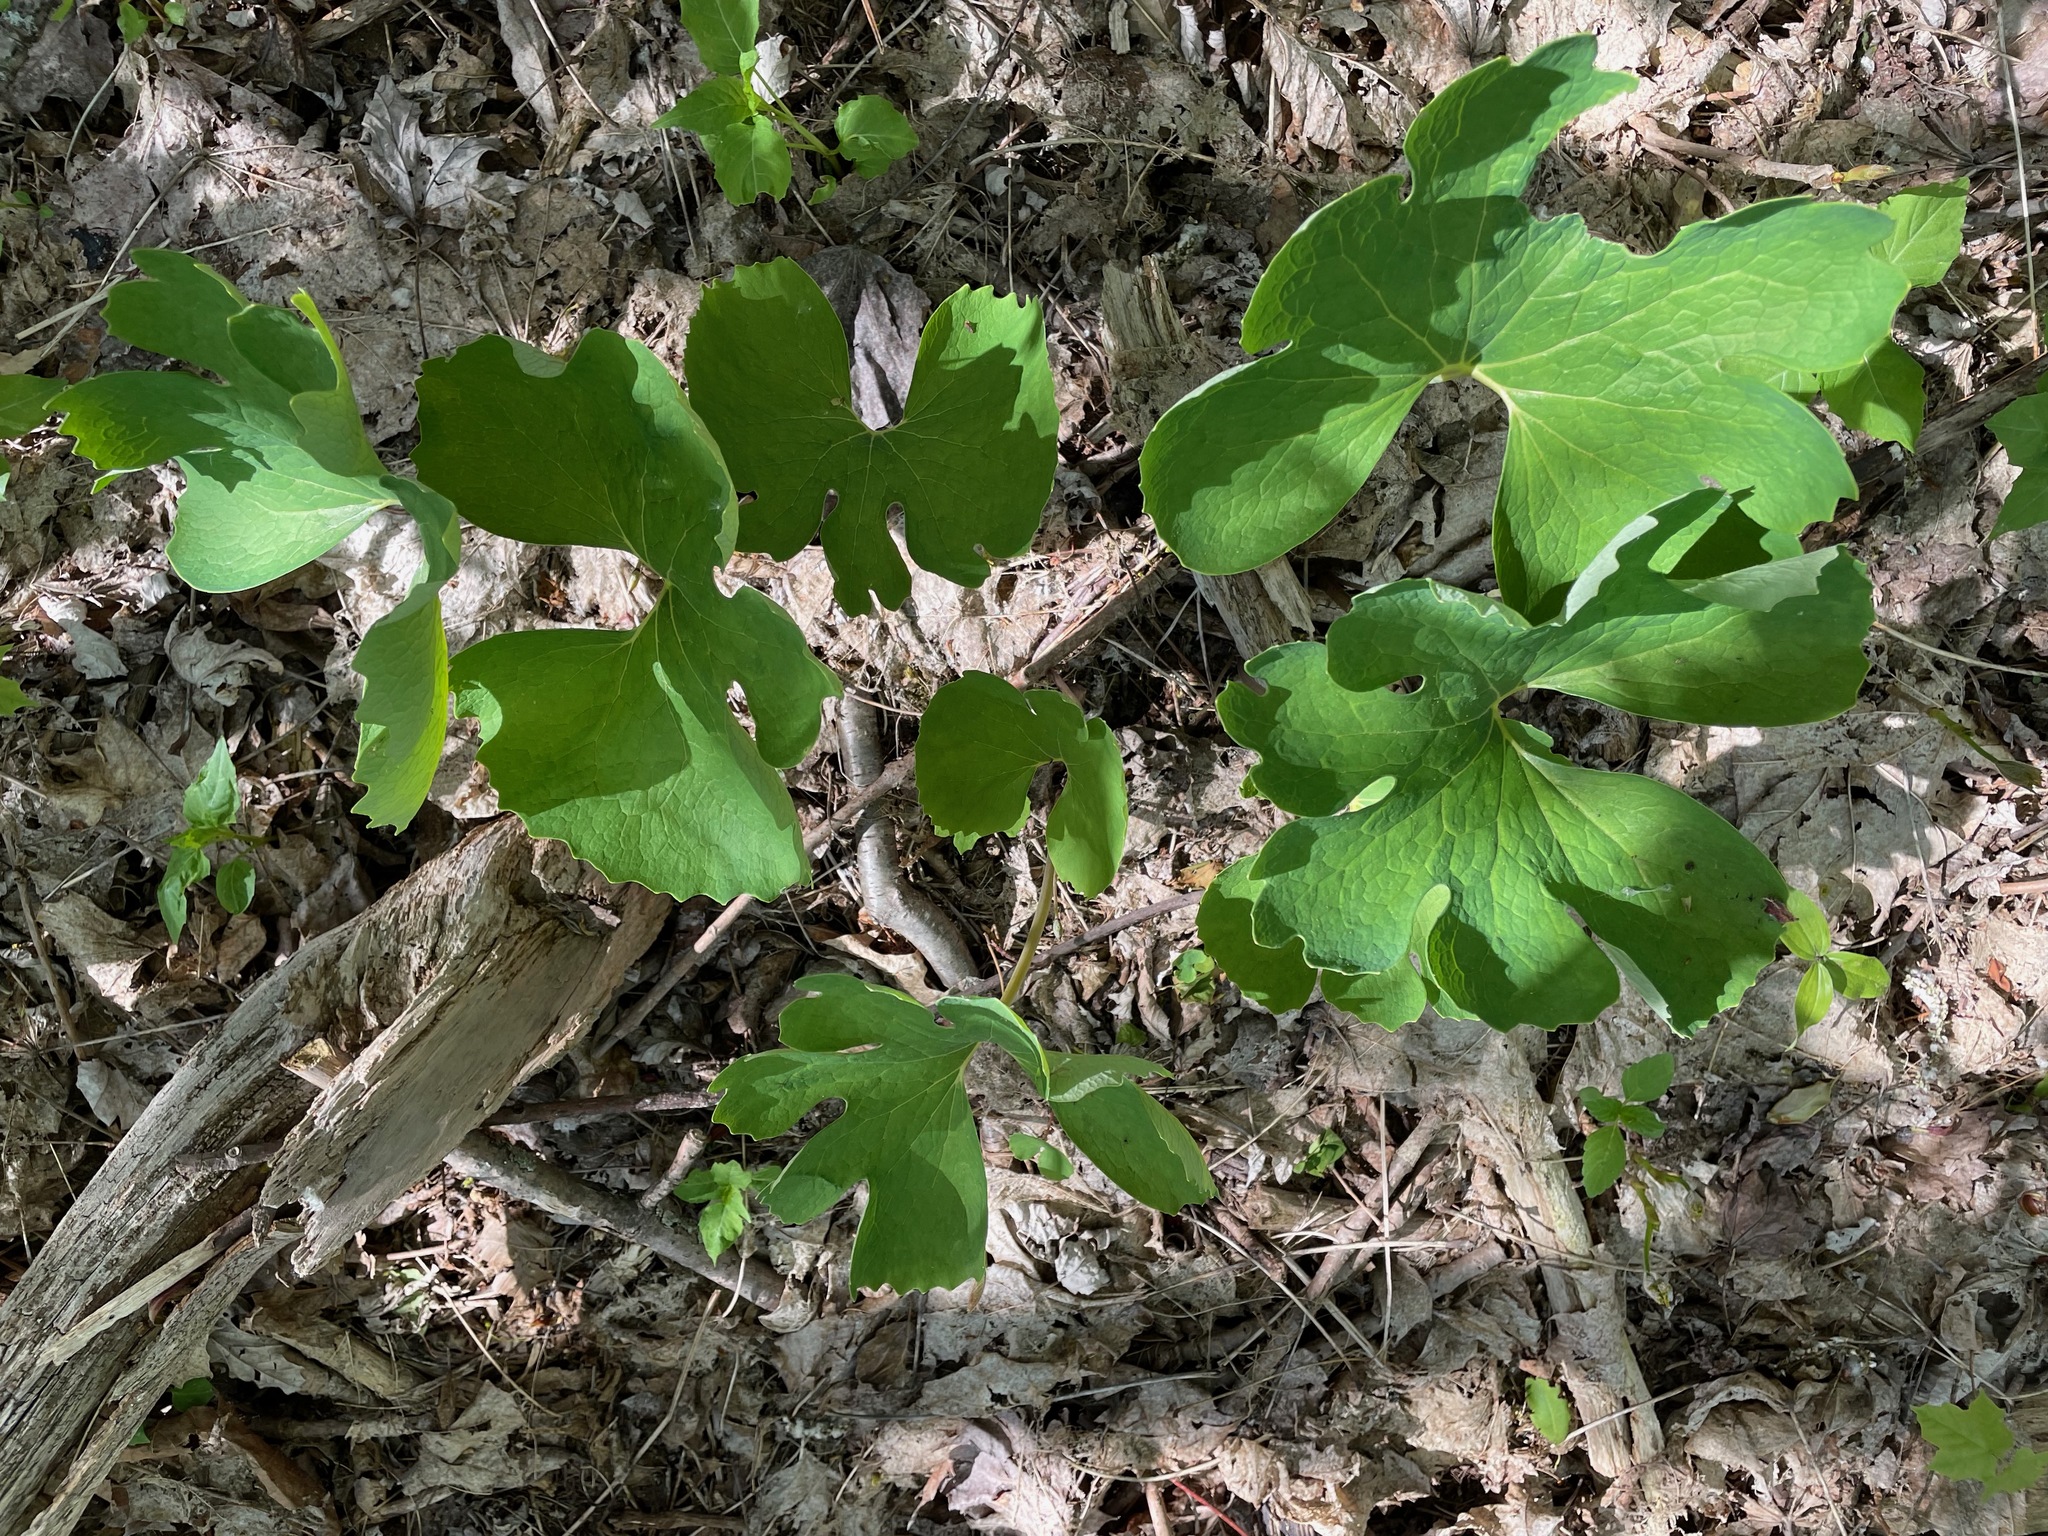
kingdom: Plantae
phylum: Tracheophyta
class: Magnoliopsida
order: Ranunculales
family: Papaveraceae
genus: Sanguinaria
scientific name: Sanguinaria canadensis
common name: Bloodroot
